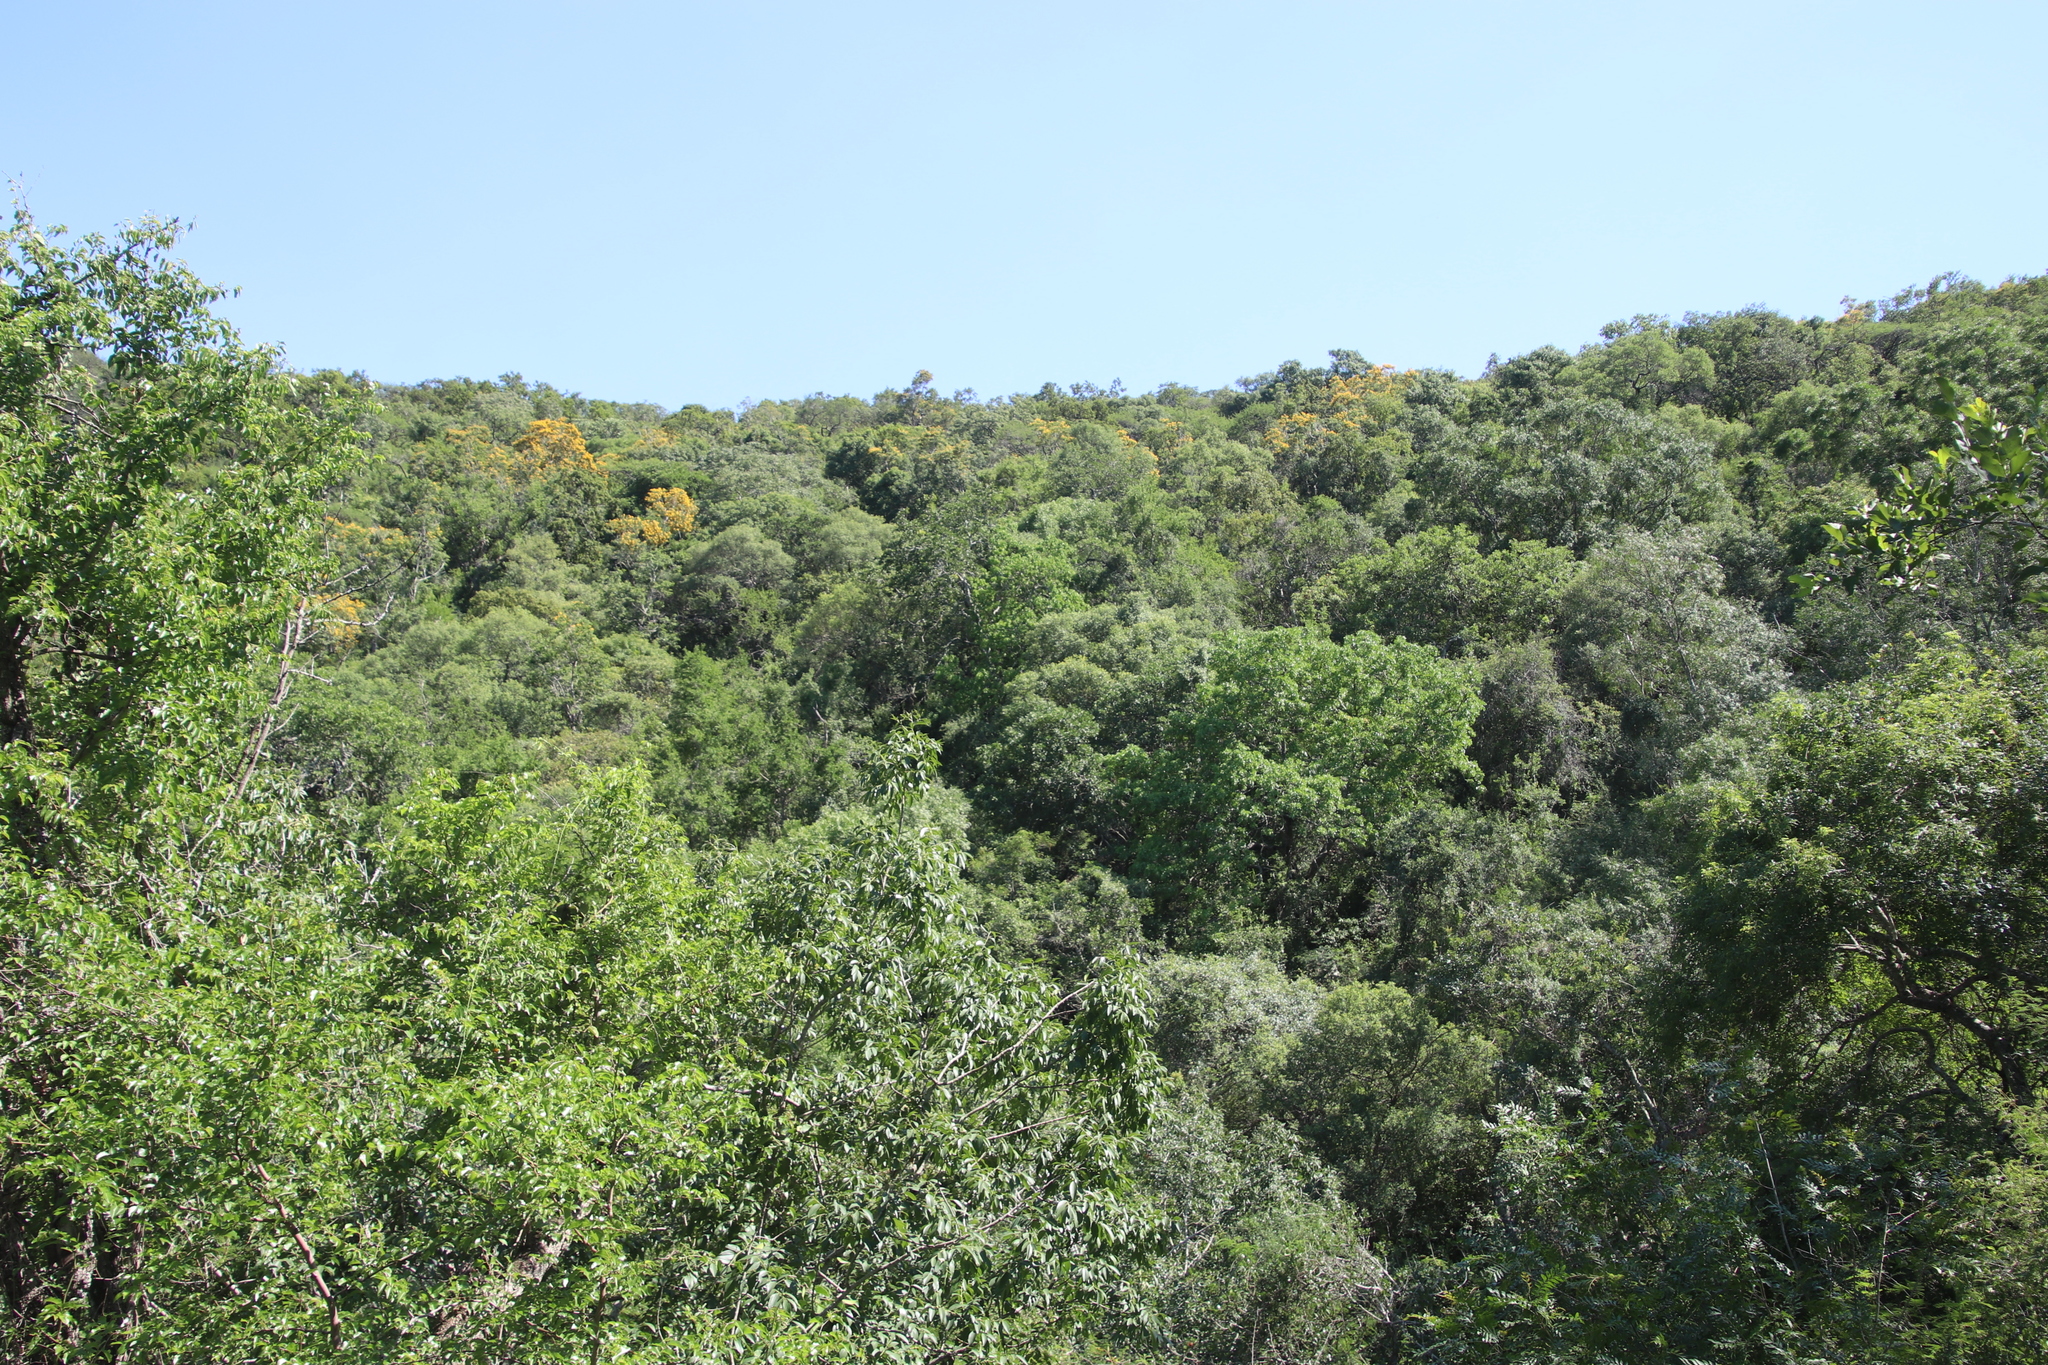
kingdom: Plantae
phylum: Tracheophyta
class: Magnoliopsida
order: Fabales
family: Fabaceae
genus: Pterocarpus
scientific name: Pterocarpus rotundifolius
